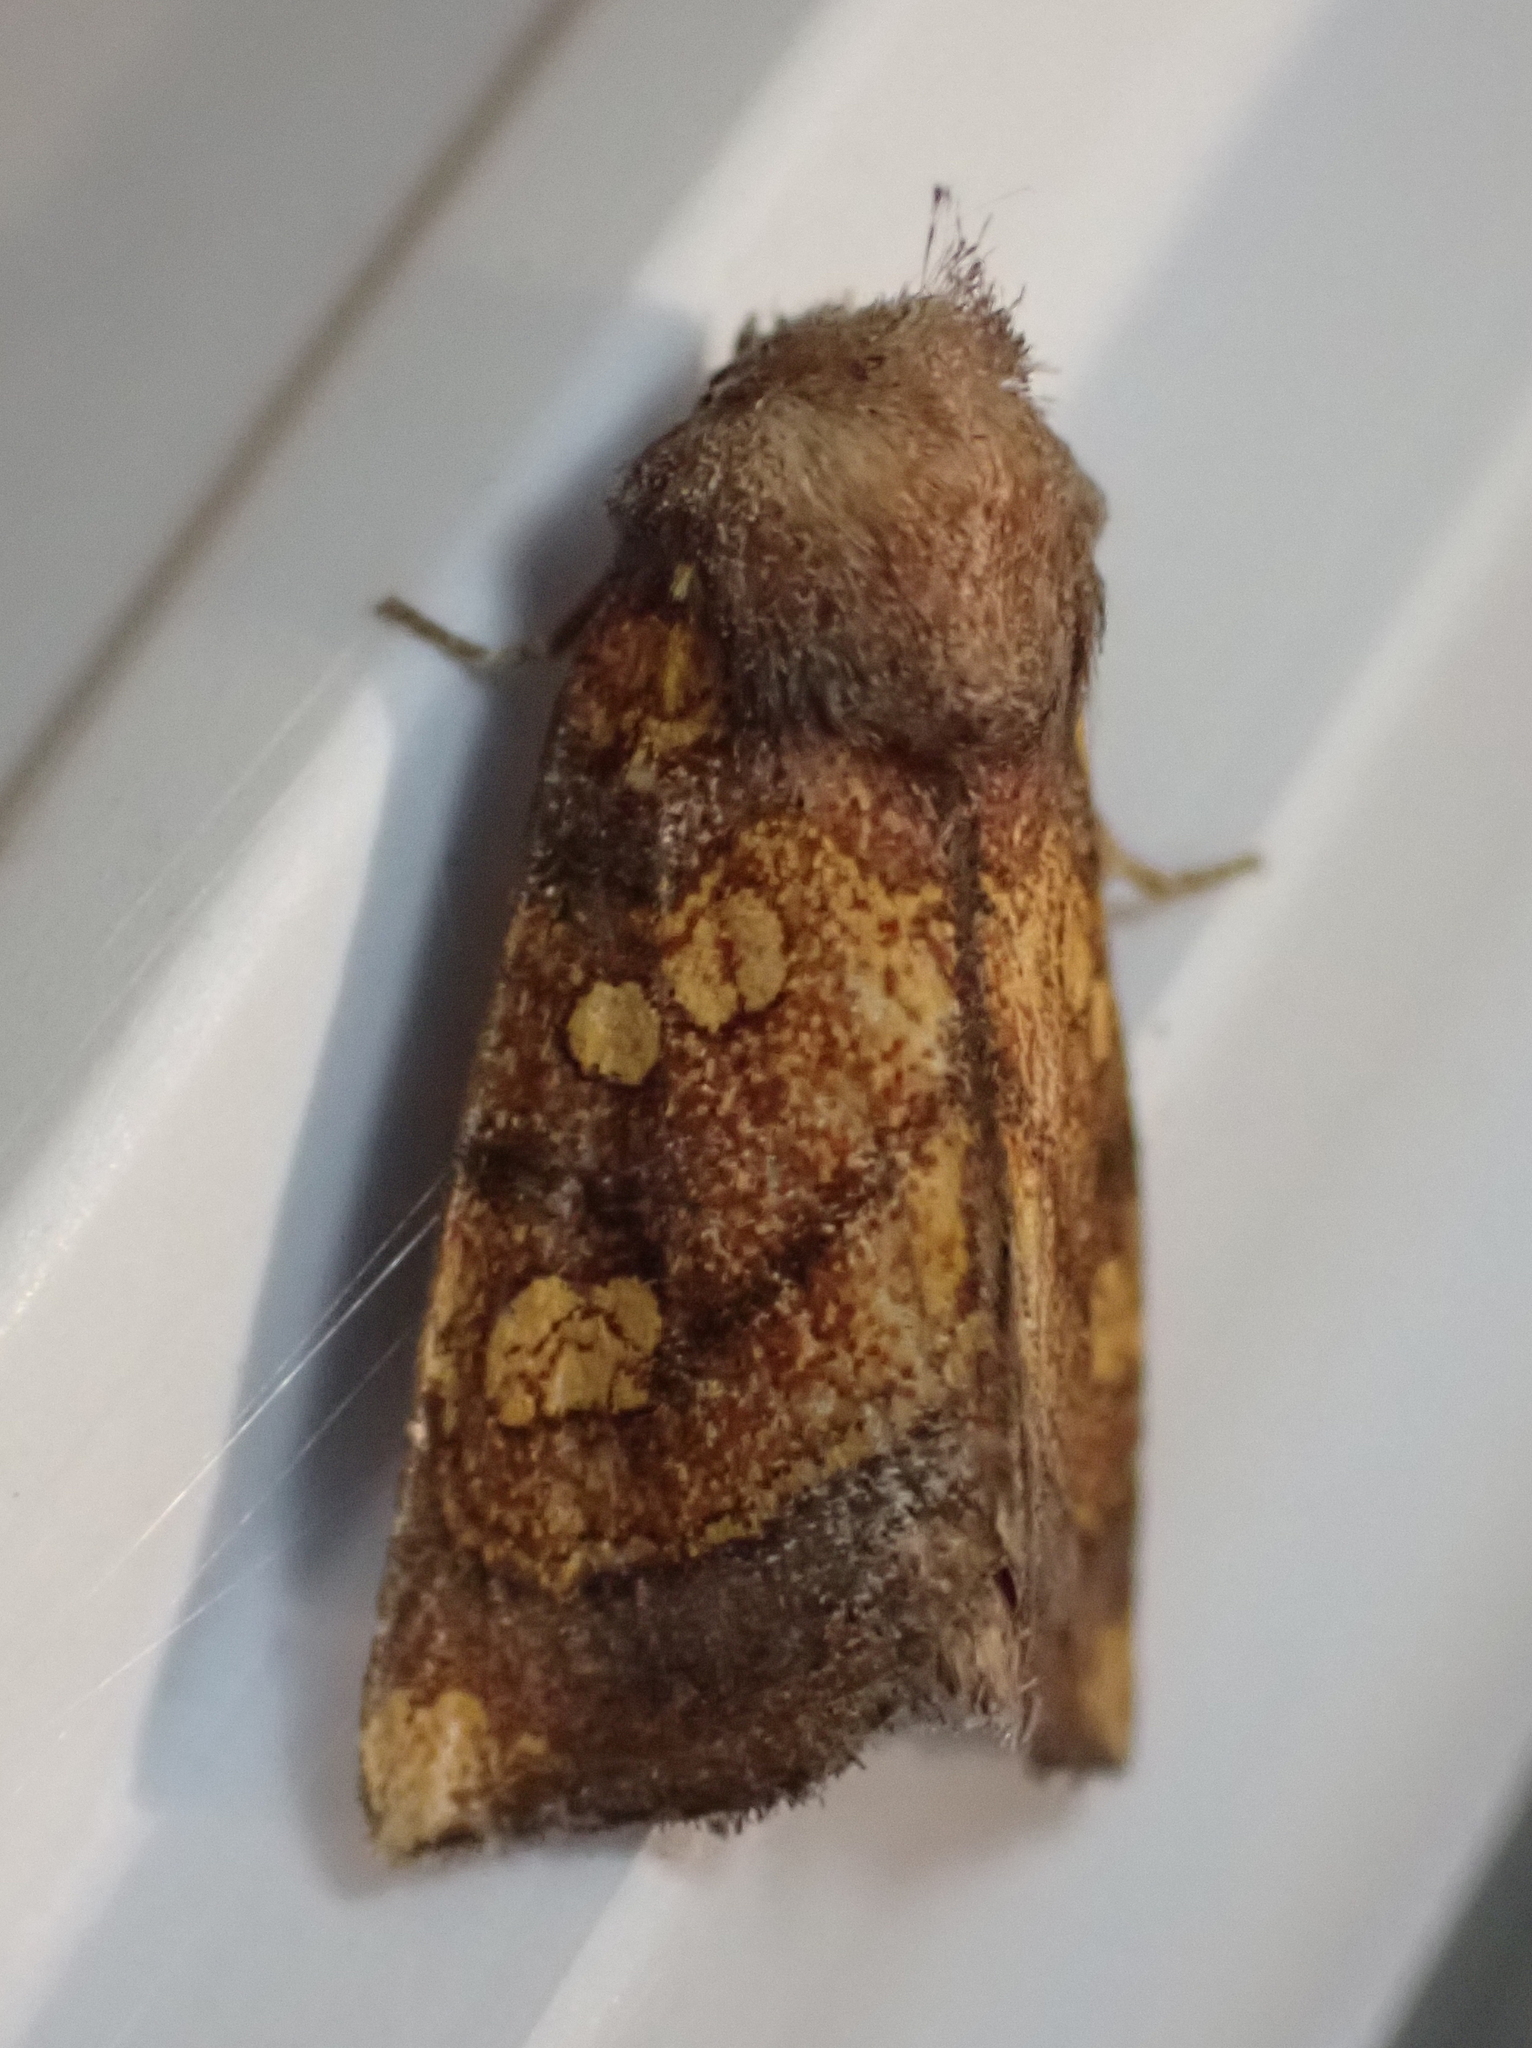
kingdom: Animalia
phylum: Arthropoda
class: Insecta
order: Lepidoptera
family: Noctuidae
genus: Papaipema
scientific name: Papaipema impecuniosa
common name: Aster borer moth
